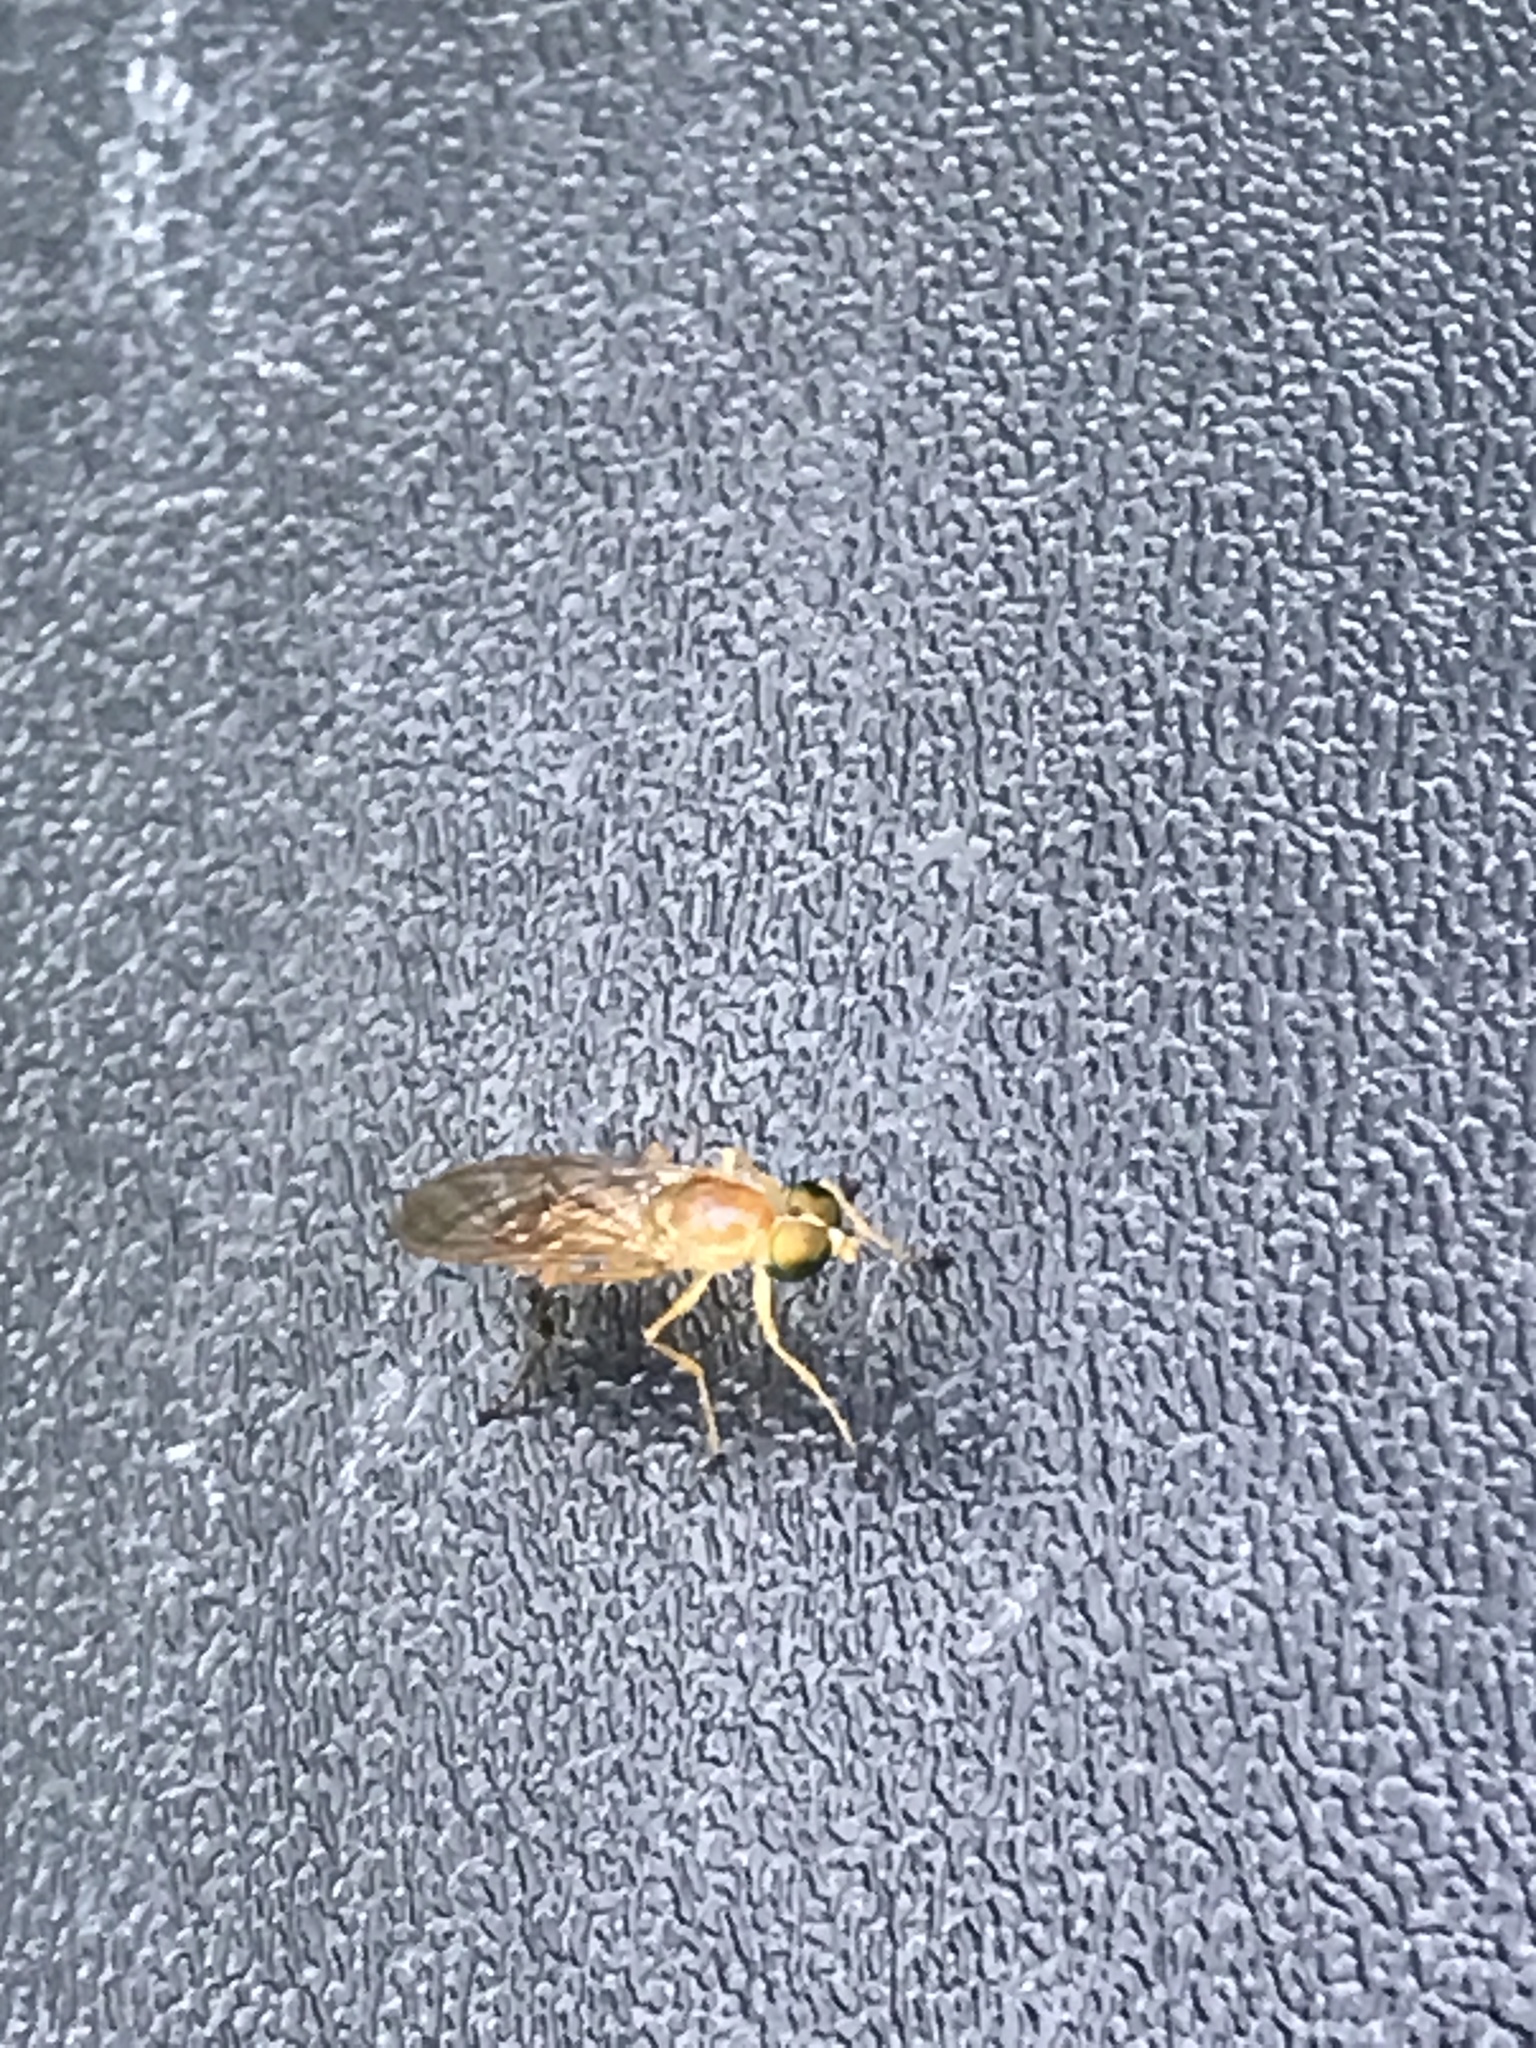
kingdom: Animalia
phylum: Arthropoda
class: Insecta
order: Diptera
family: Stratiomyidae
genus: Ptecticus
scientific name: Ptecticus trivittatus
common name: Compost fly
